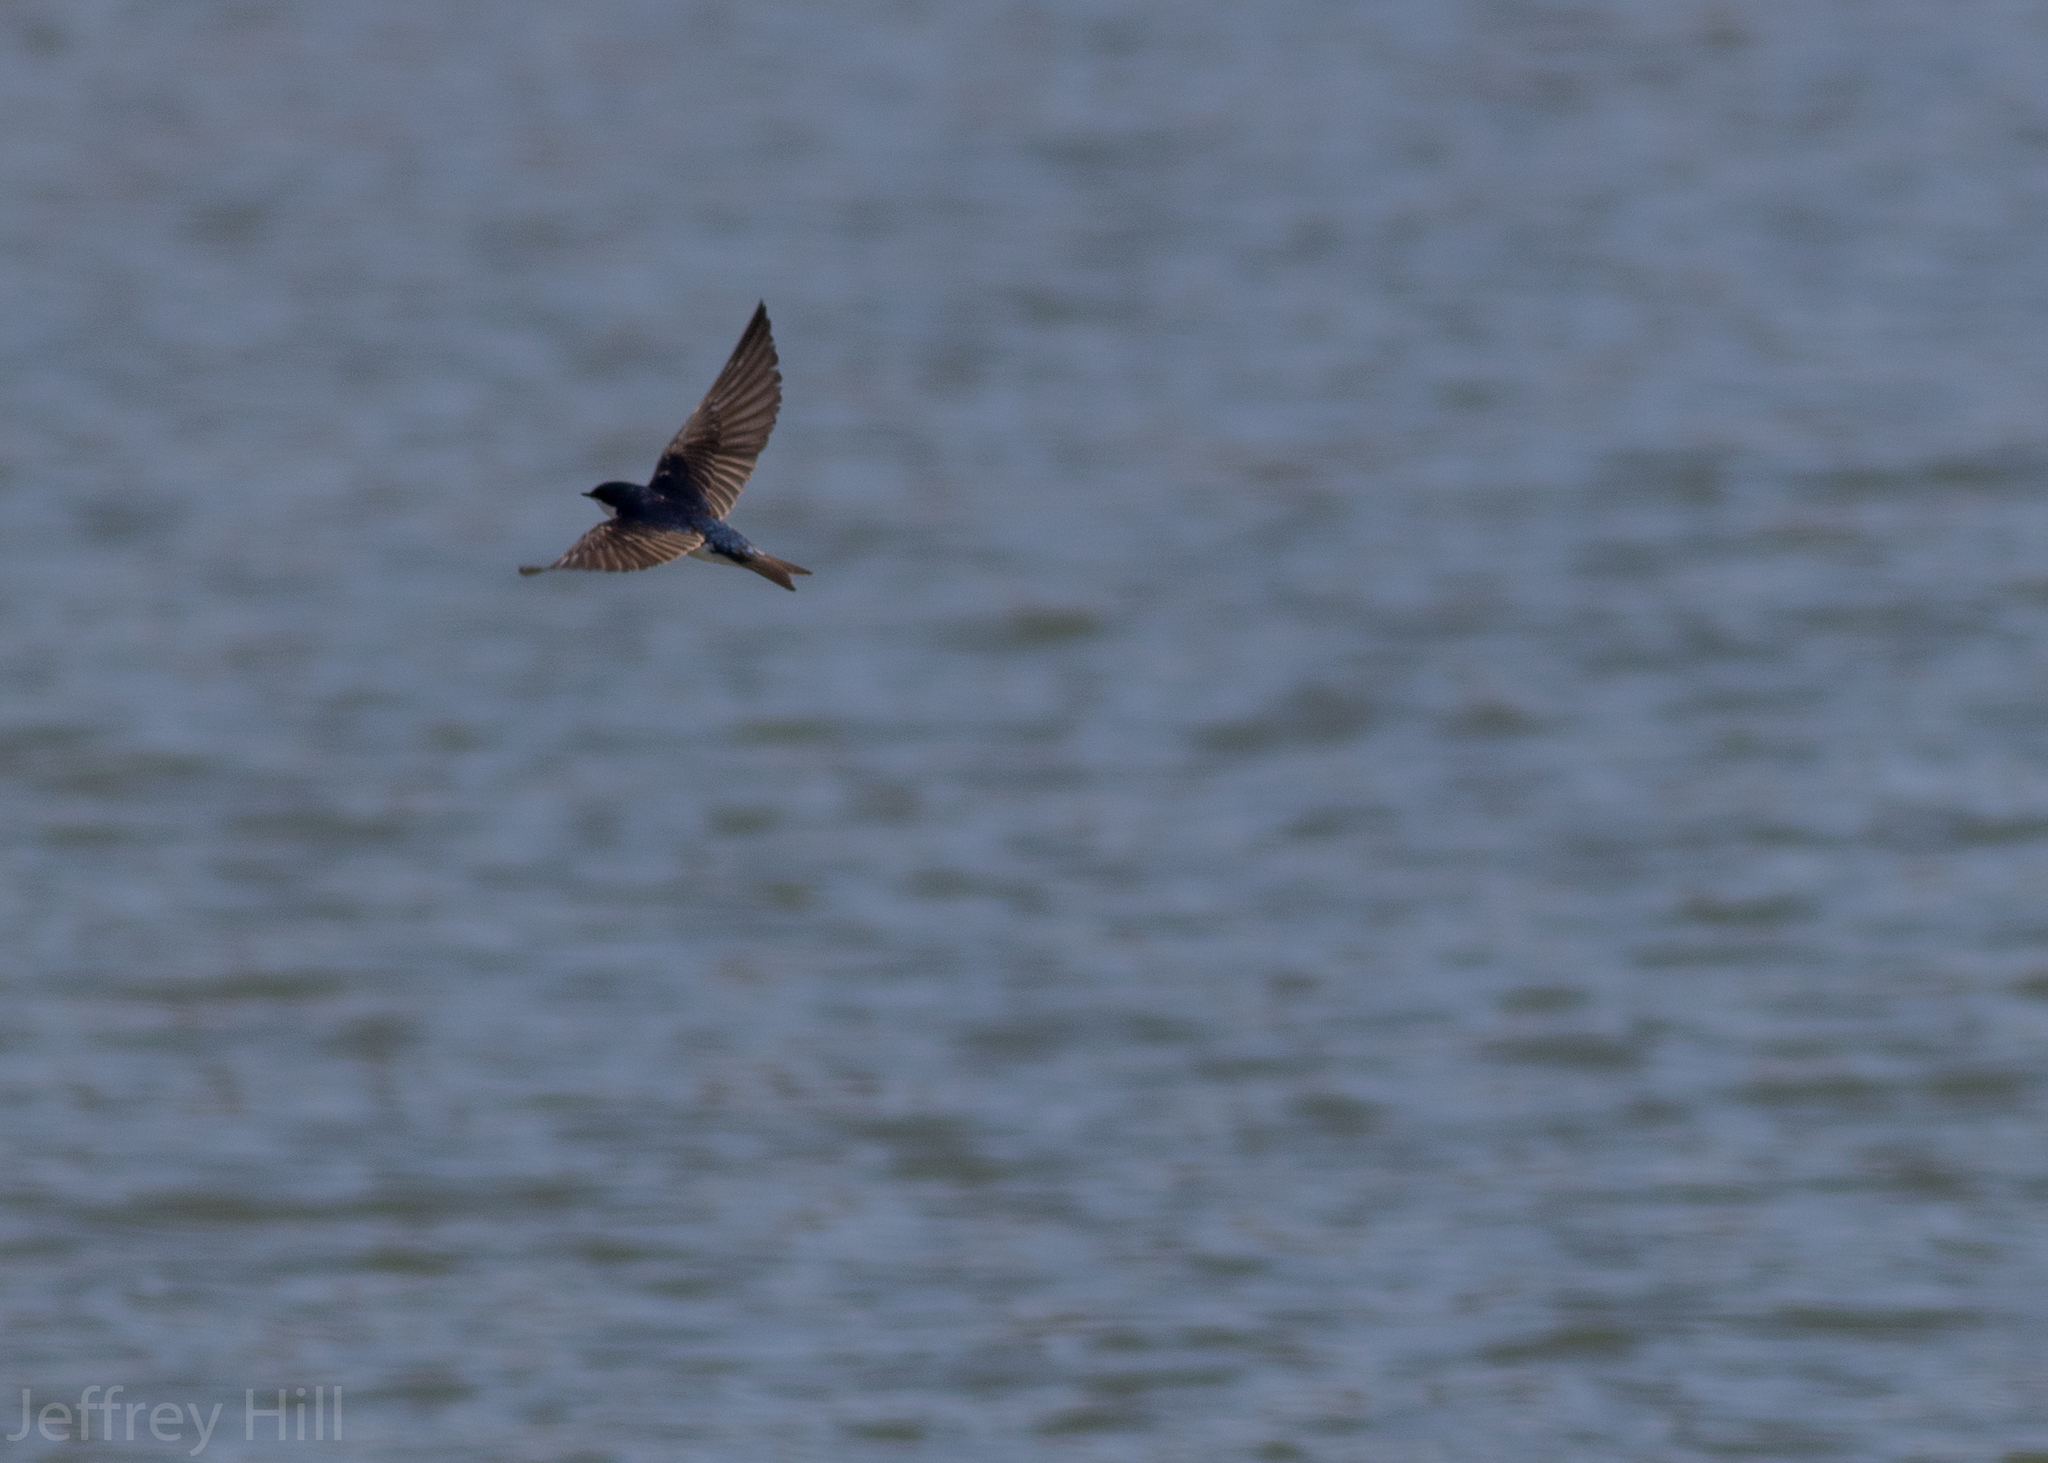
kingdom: Animalia
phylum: Chordata
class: Aves
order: Passeriformes
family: Hirundinidae
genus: Tachycineta
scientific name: Tachycineta bicolor
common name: Tree swallow
